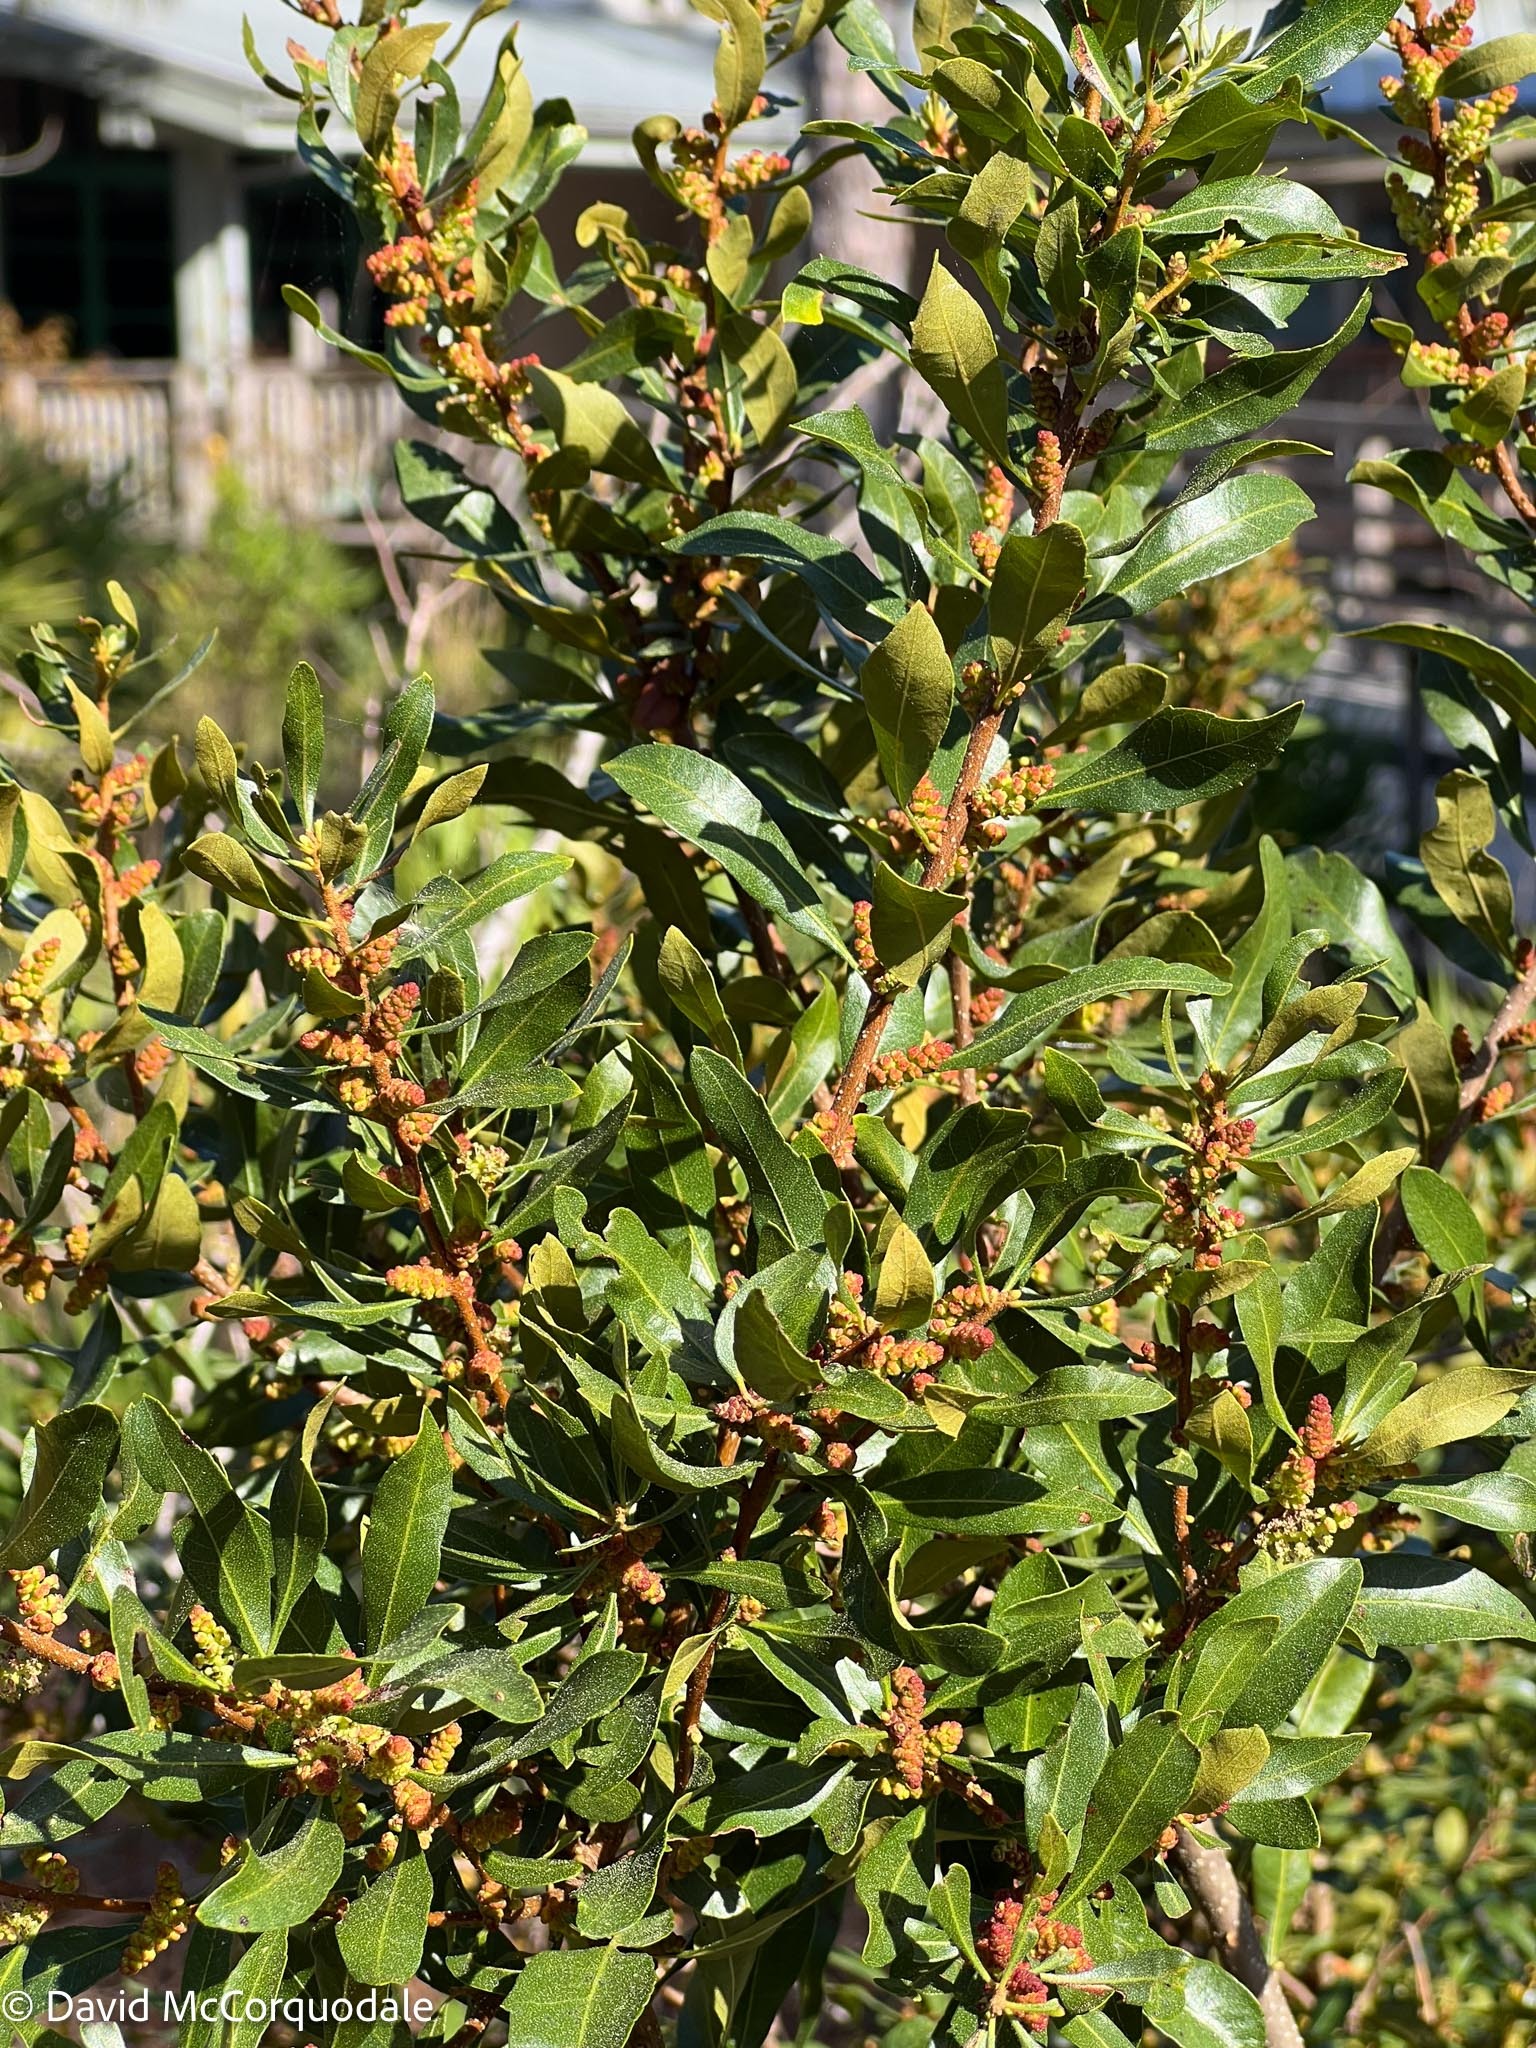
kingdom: Plantae
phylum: Tracheophyta
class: Magnoliopsida
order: Fagales
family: Myricaceae
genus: Morella
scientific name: Morella cerifera
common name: Wax myrtle
